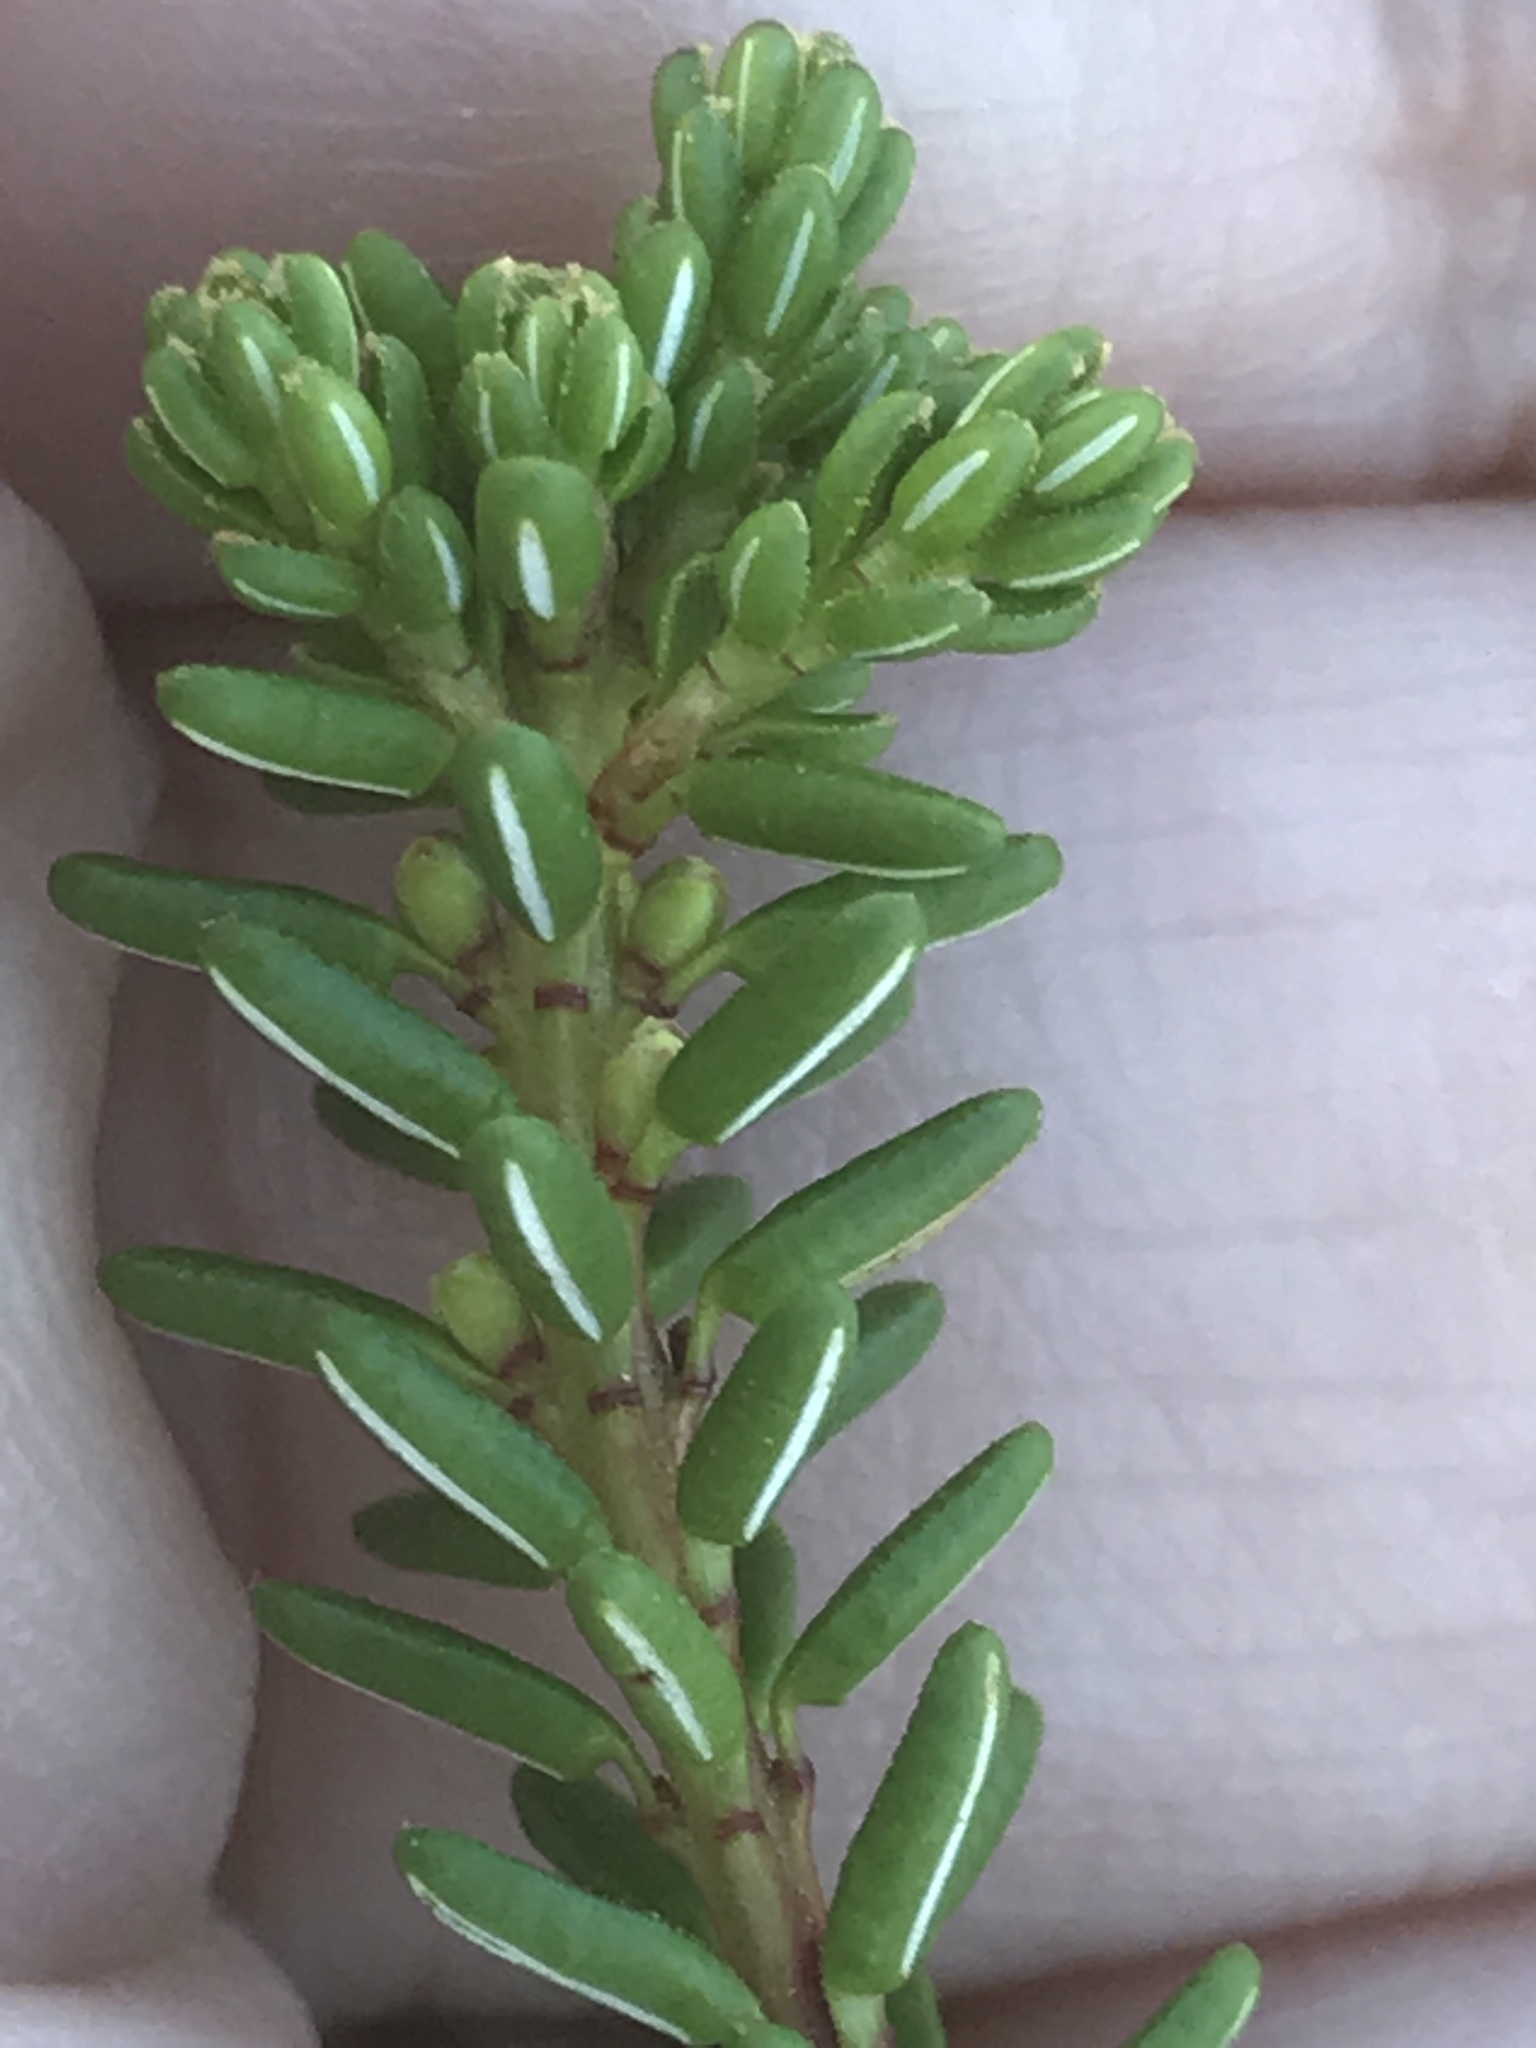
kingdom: Plantae
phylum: Tracheophyta
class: Magnoliopsida
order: Ericales
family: Ericaceae
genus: Empetrum
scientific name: Empetrum nigrum
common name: Black crowberry
